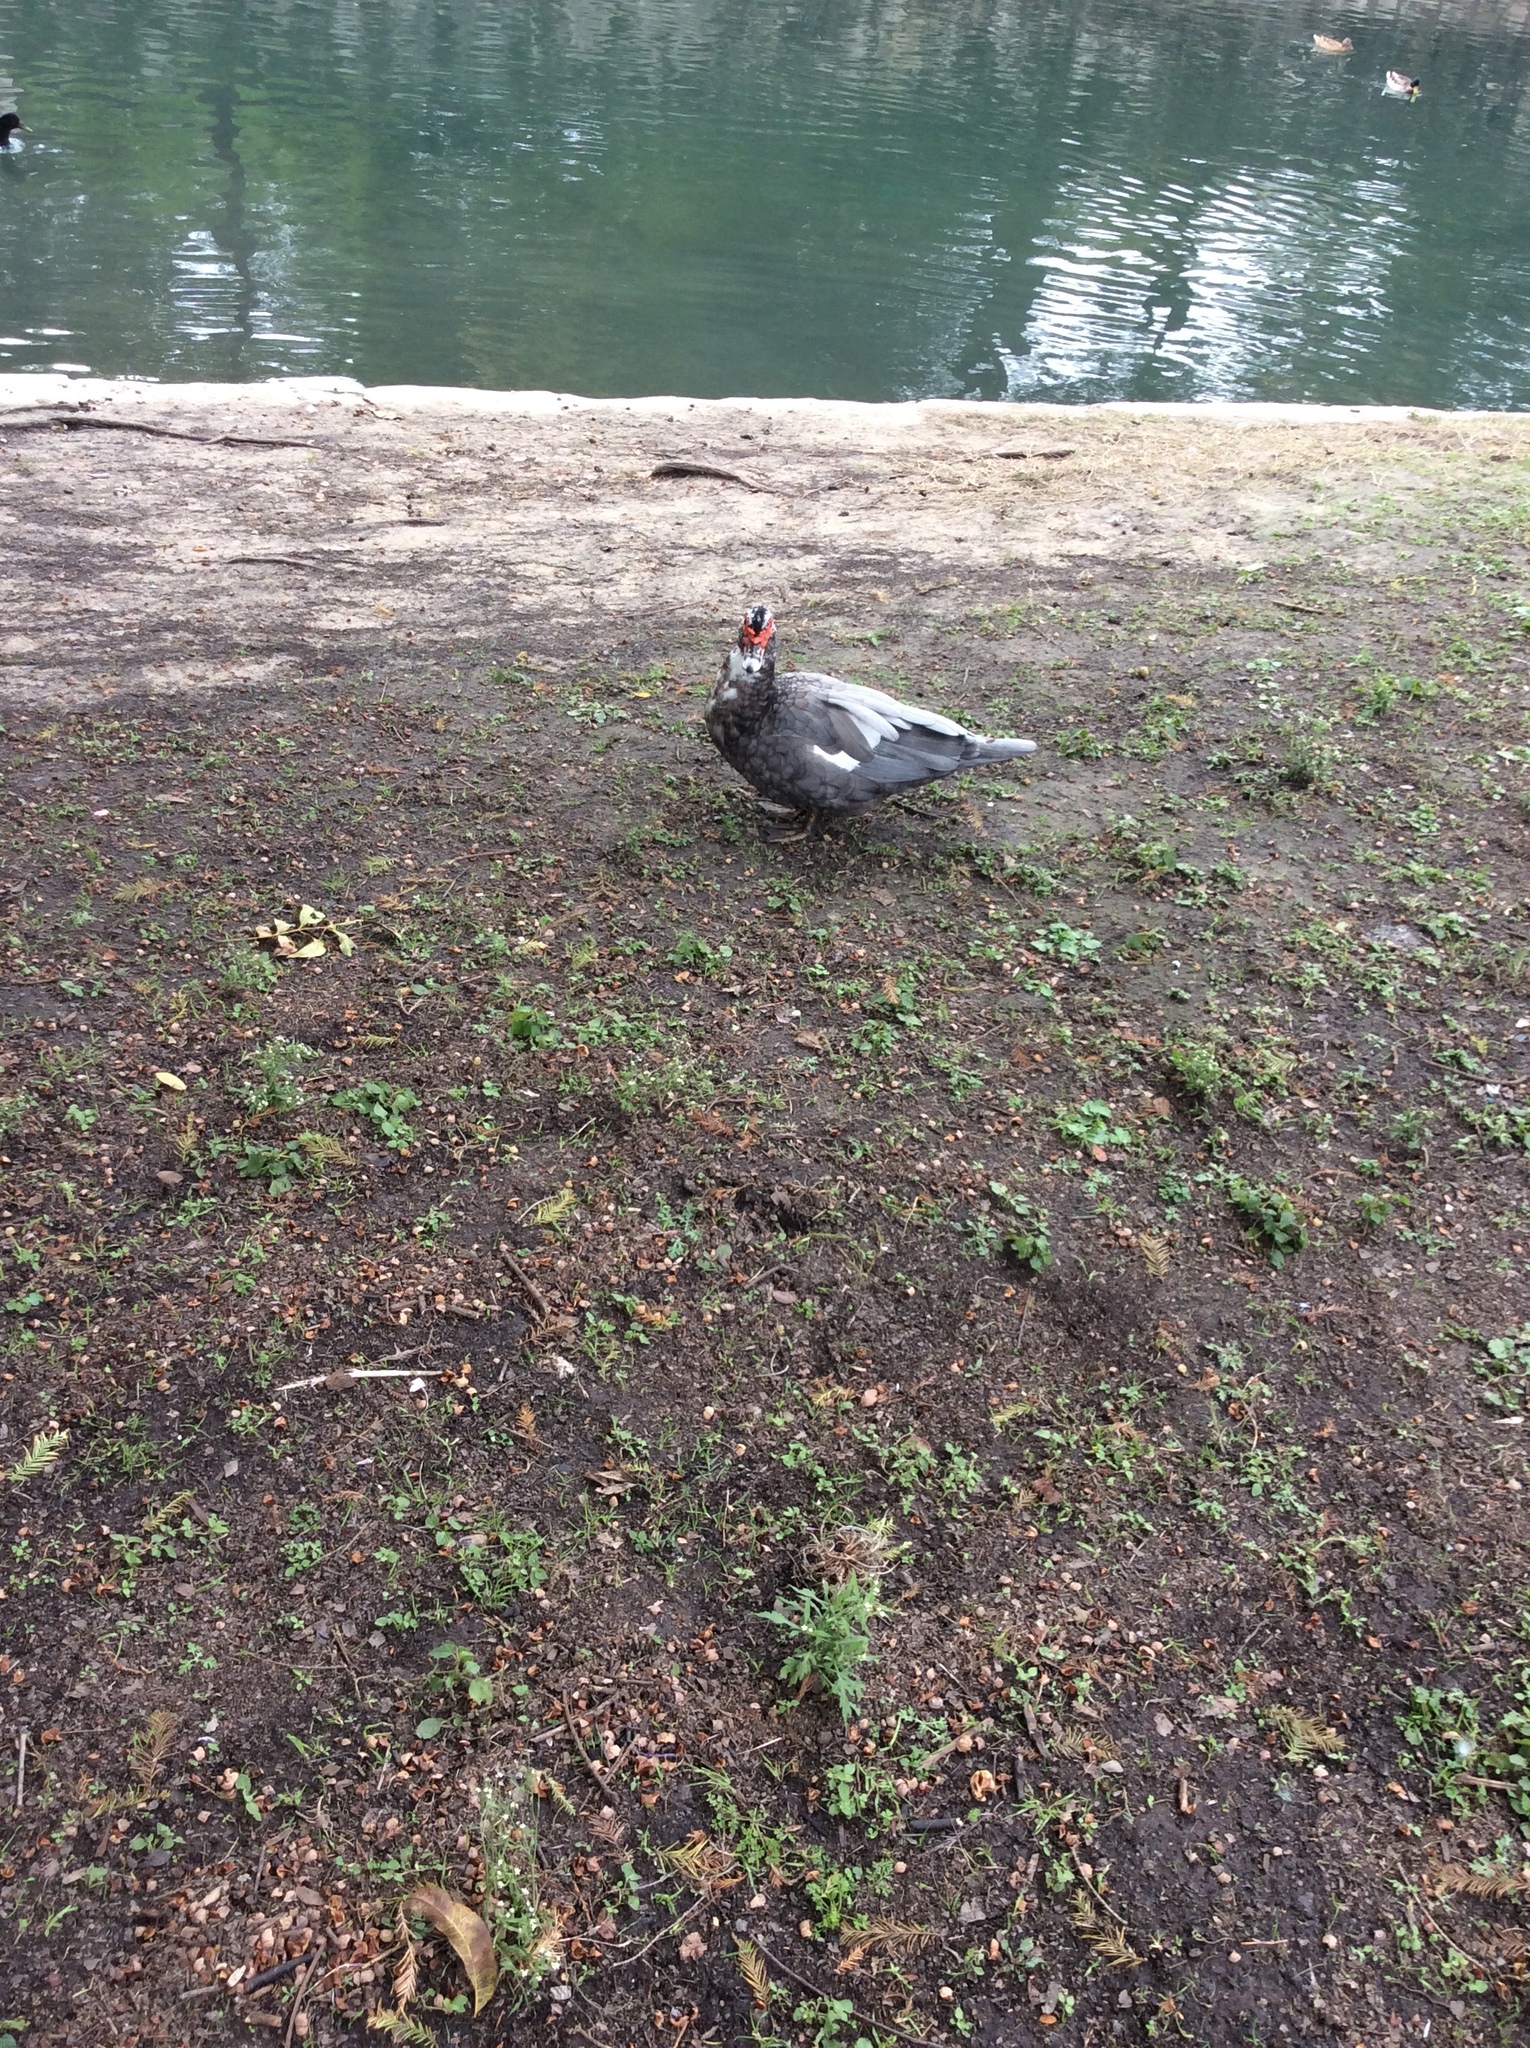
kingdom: Animalia
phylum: Chordata
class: Aves
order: Anseriformes
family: Anatidae
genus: Cairina
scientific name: Cairina moschata
